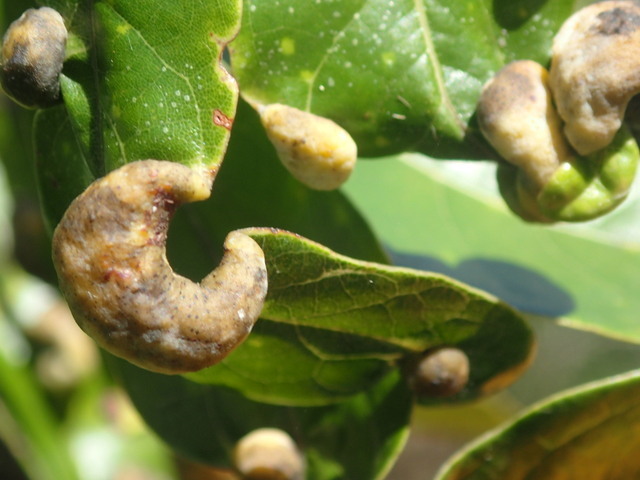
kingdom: Animalia
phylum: Arthropoda
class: Insecta
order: Hemiptera
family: Triozidae
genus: Trioza
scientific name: Trioza magnoliae
